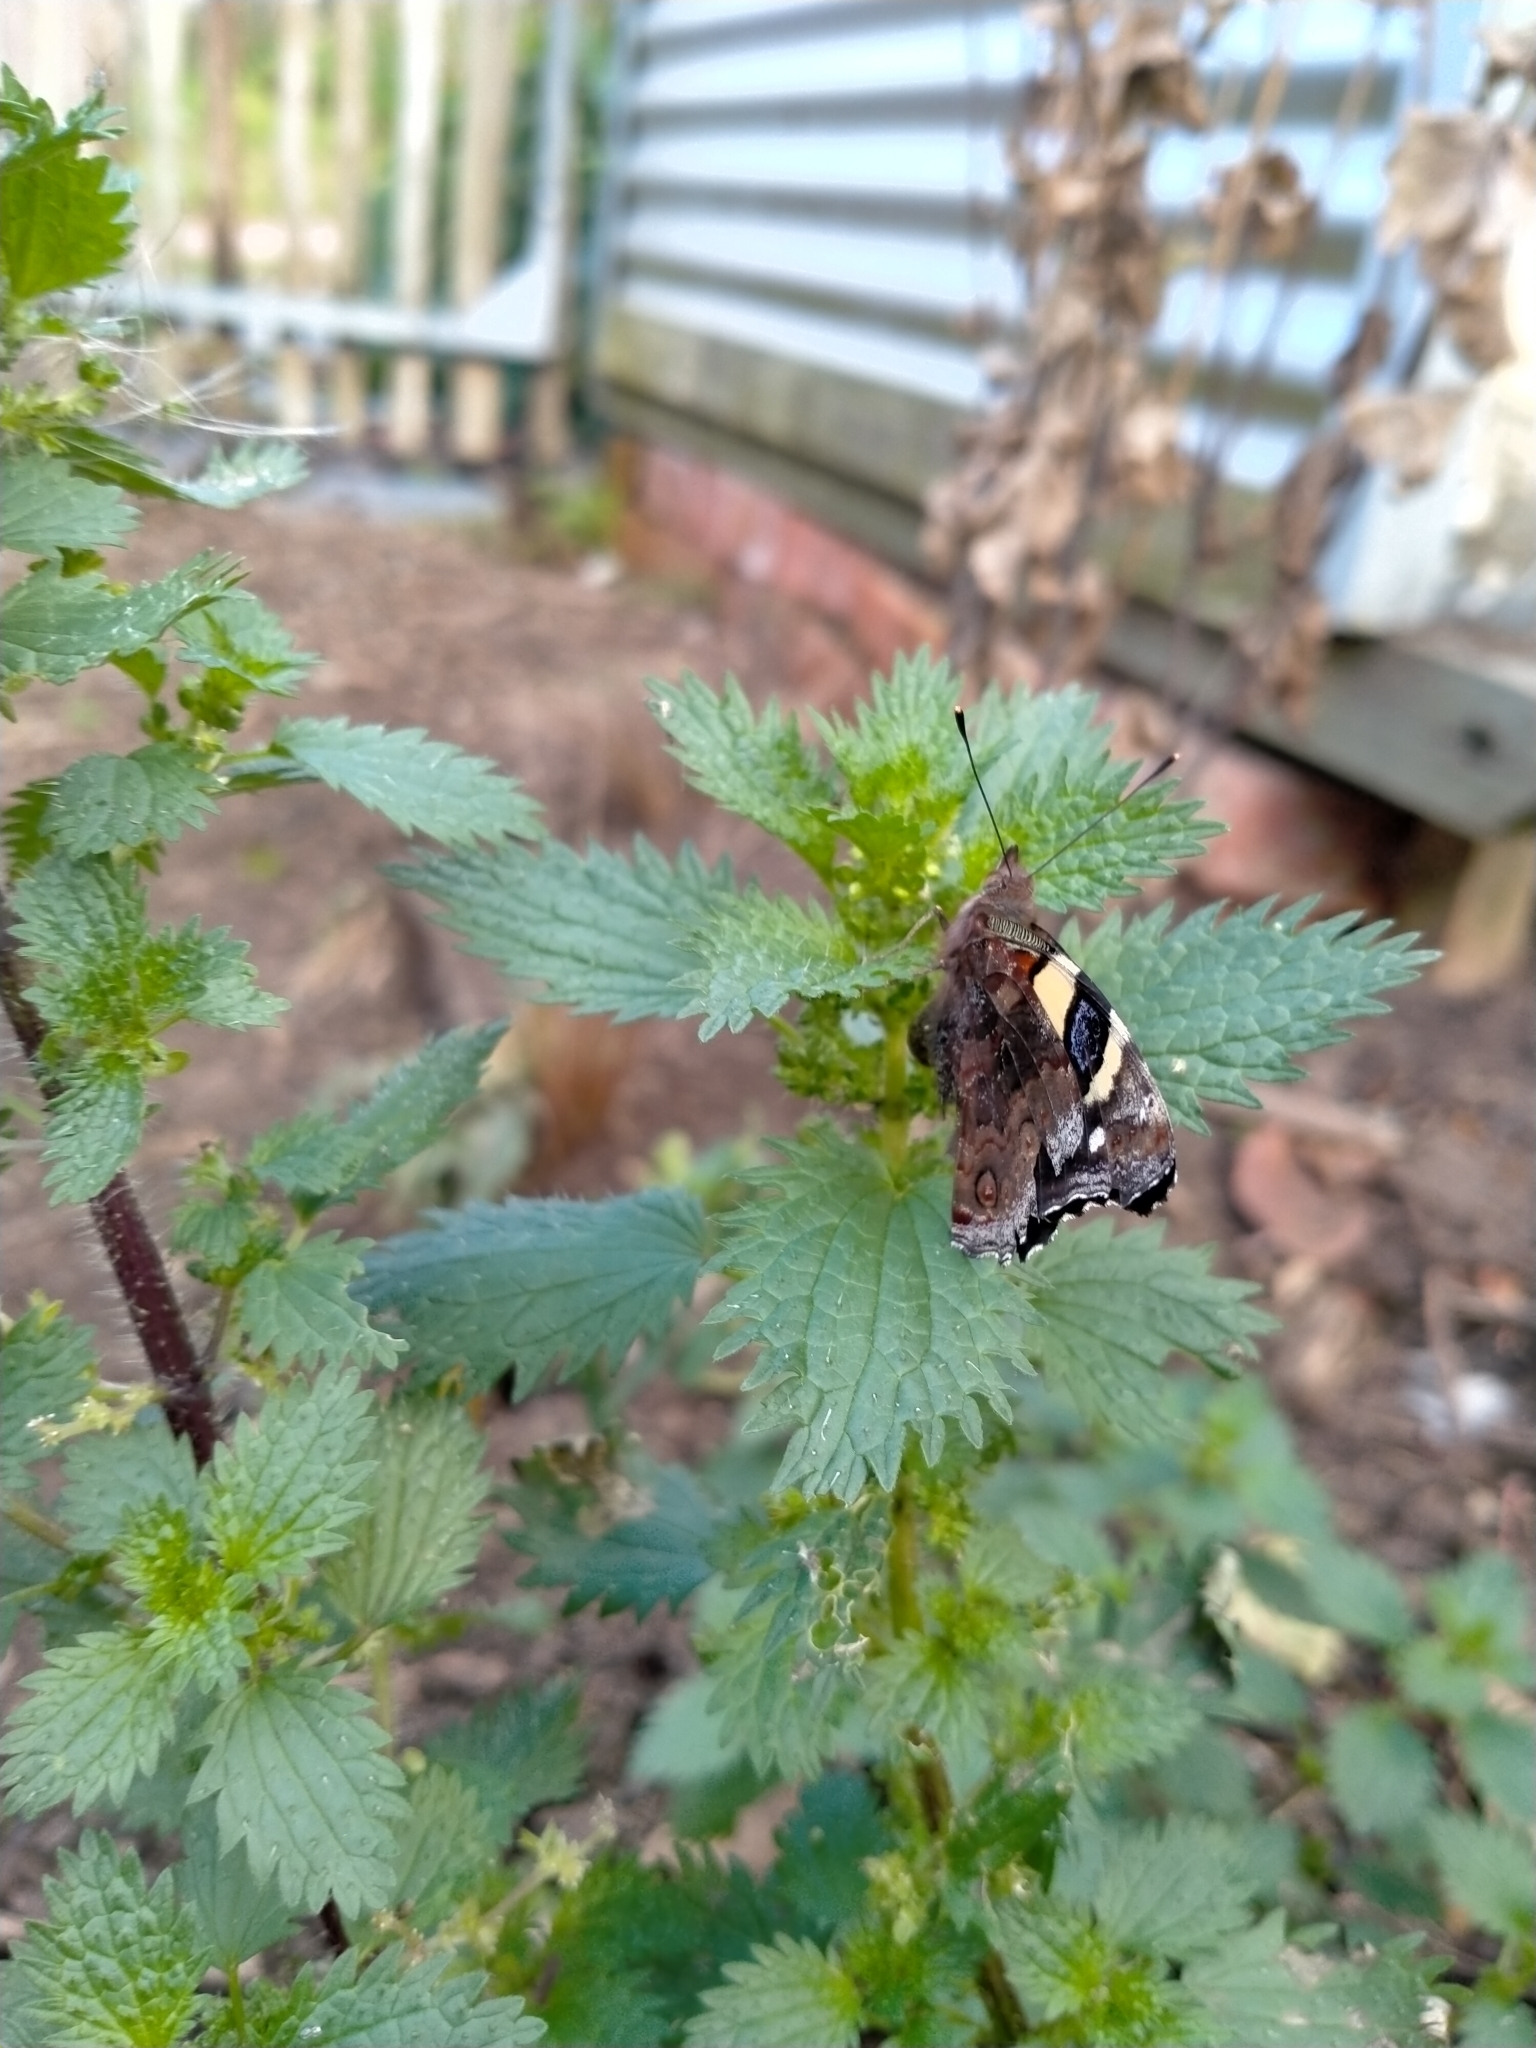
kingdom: Animalia
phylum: Arthropoda
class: Insecta
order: Lepidoptera
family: Nymphalidae
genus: Vanessa
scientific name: Vanessa itea
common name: Yellow admiral
